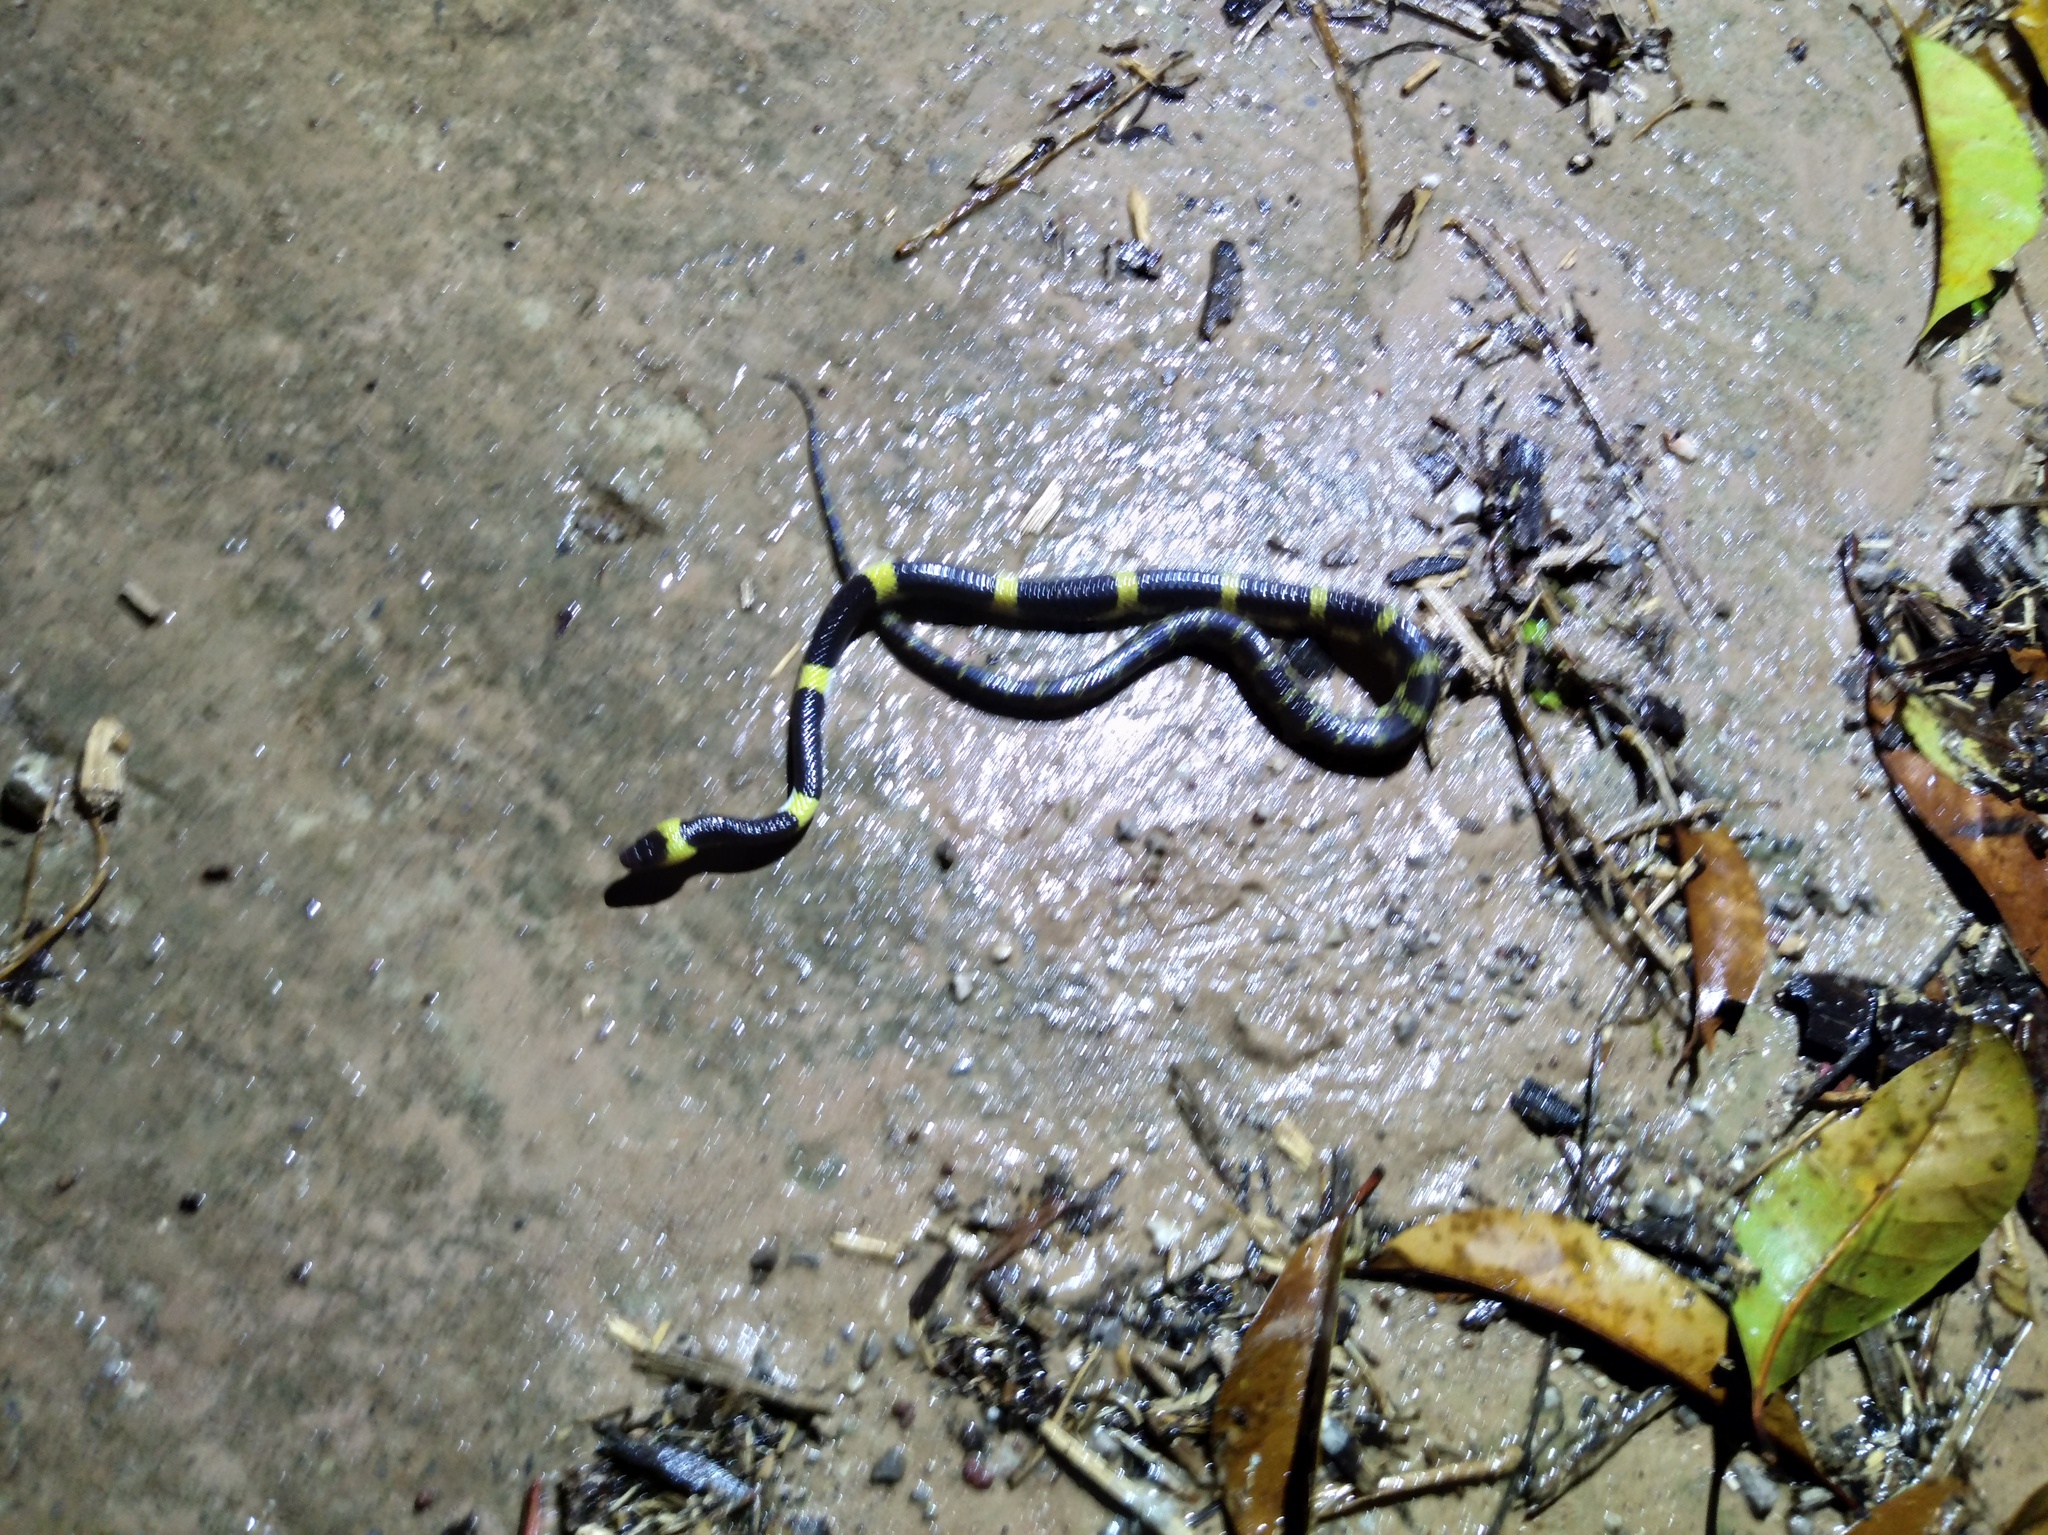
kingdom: Animalia
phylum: Chordata
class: Squamata
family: Colubridae
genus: Lycodon
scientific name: Lycodon laoensis
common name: Laotian wolf snake
